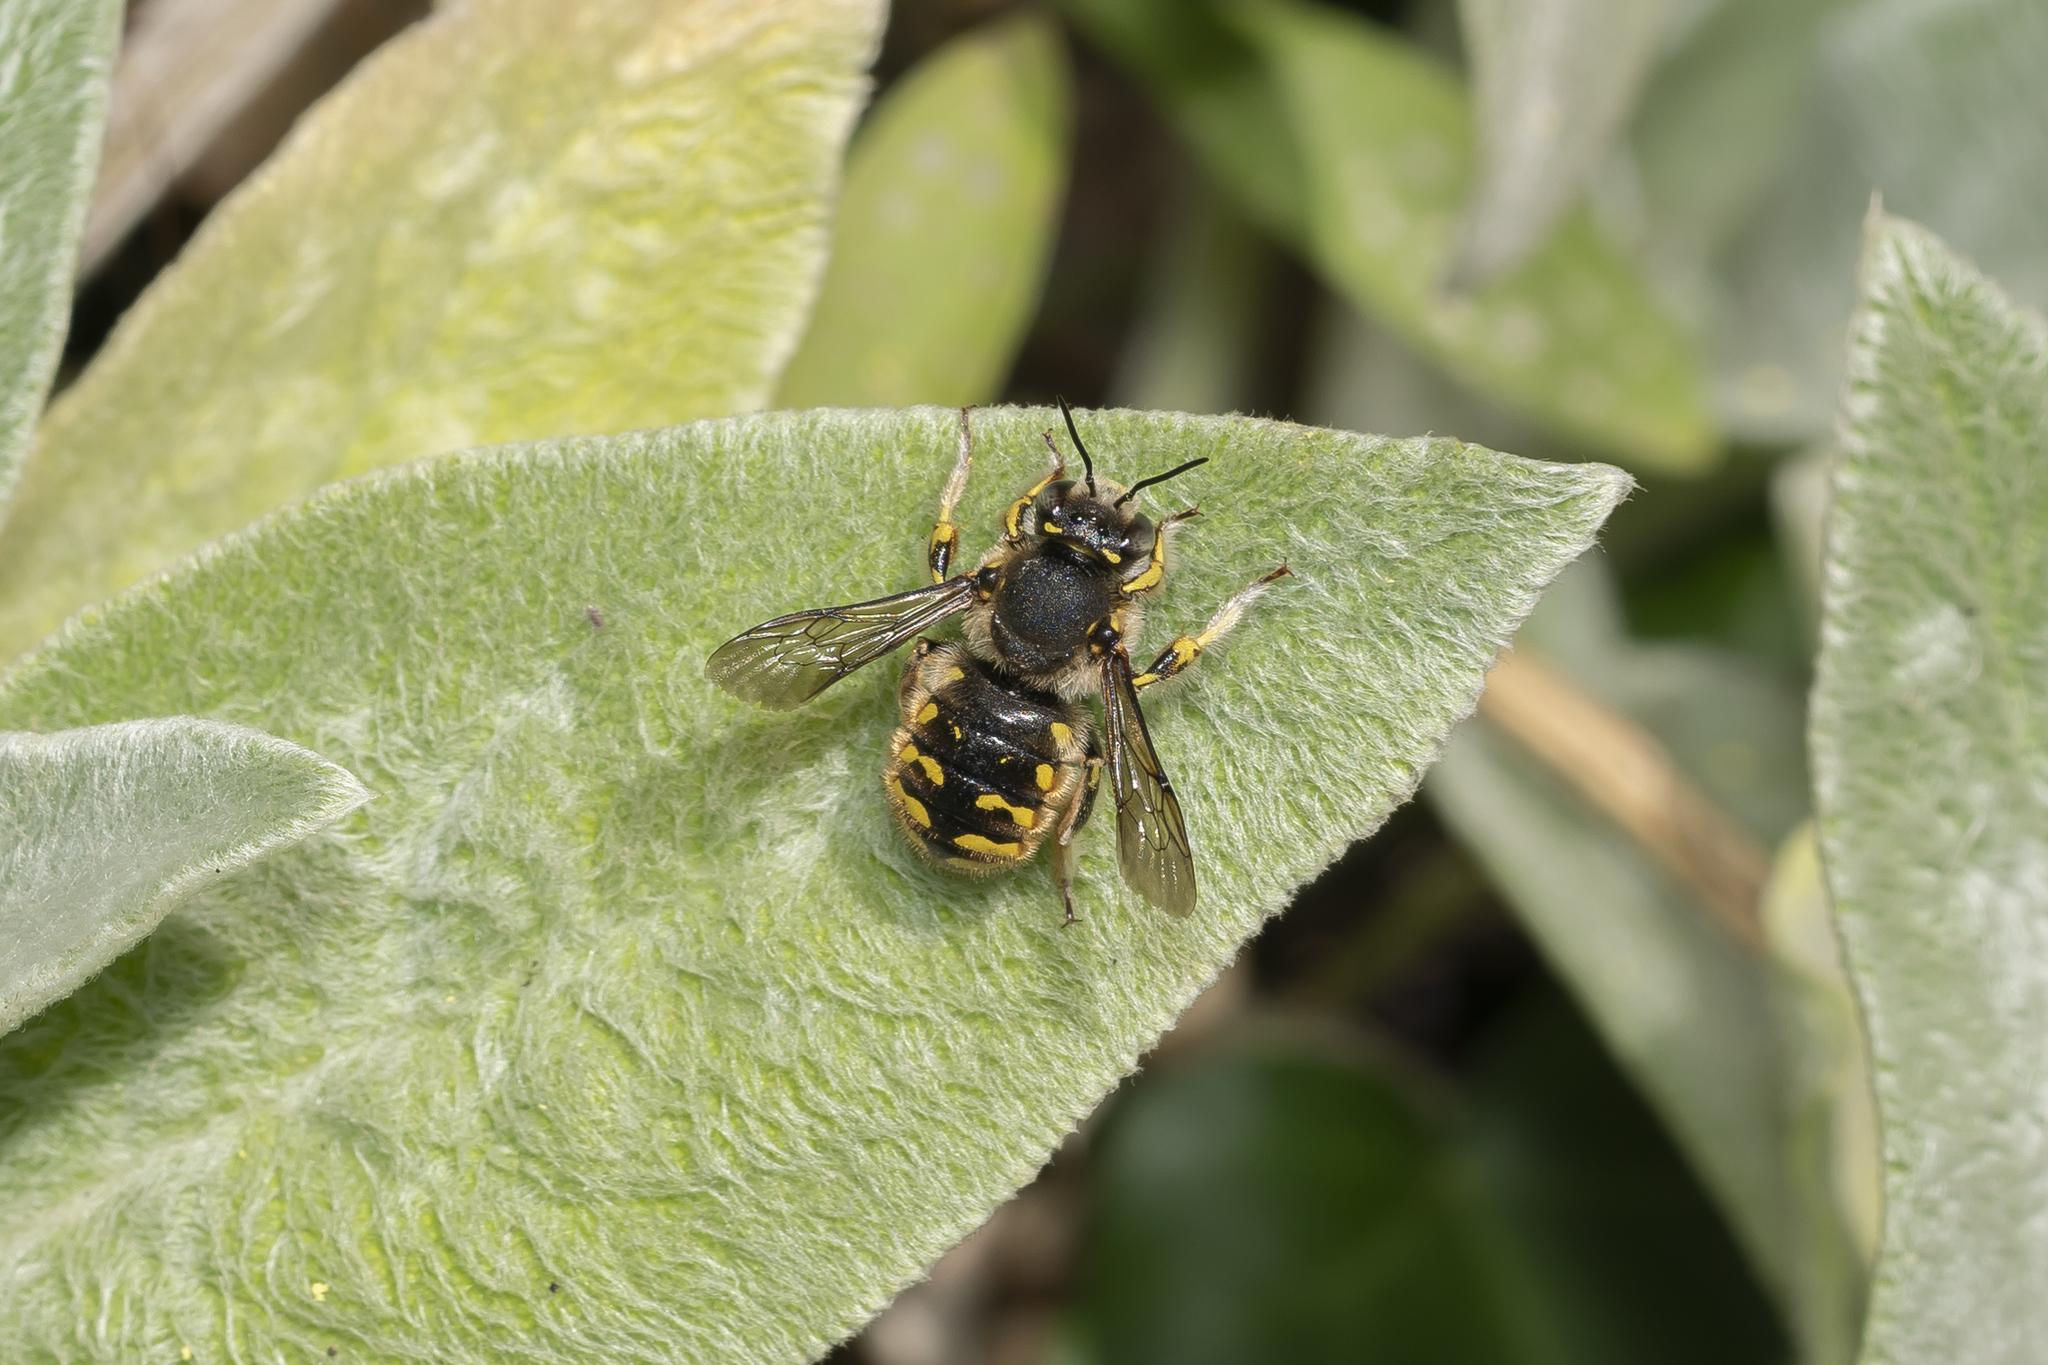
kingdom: Animalia
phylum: Arthropoda
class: Insecta
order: Hymenoptera
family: Megachilidae
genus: Anthidium
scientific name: Anthidium manicatum
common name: Wool carder bee
